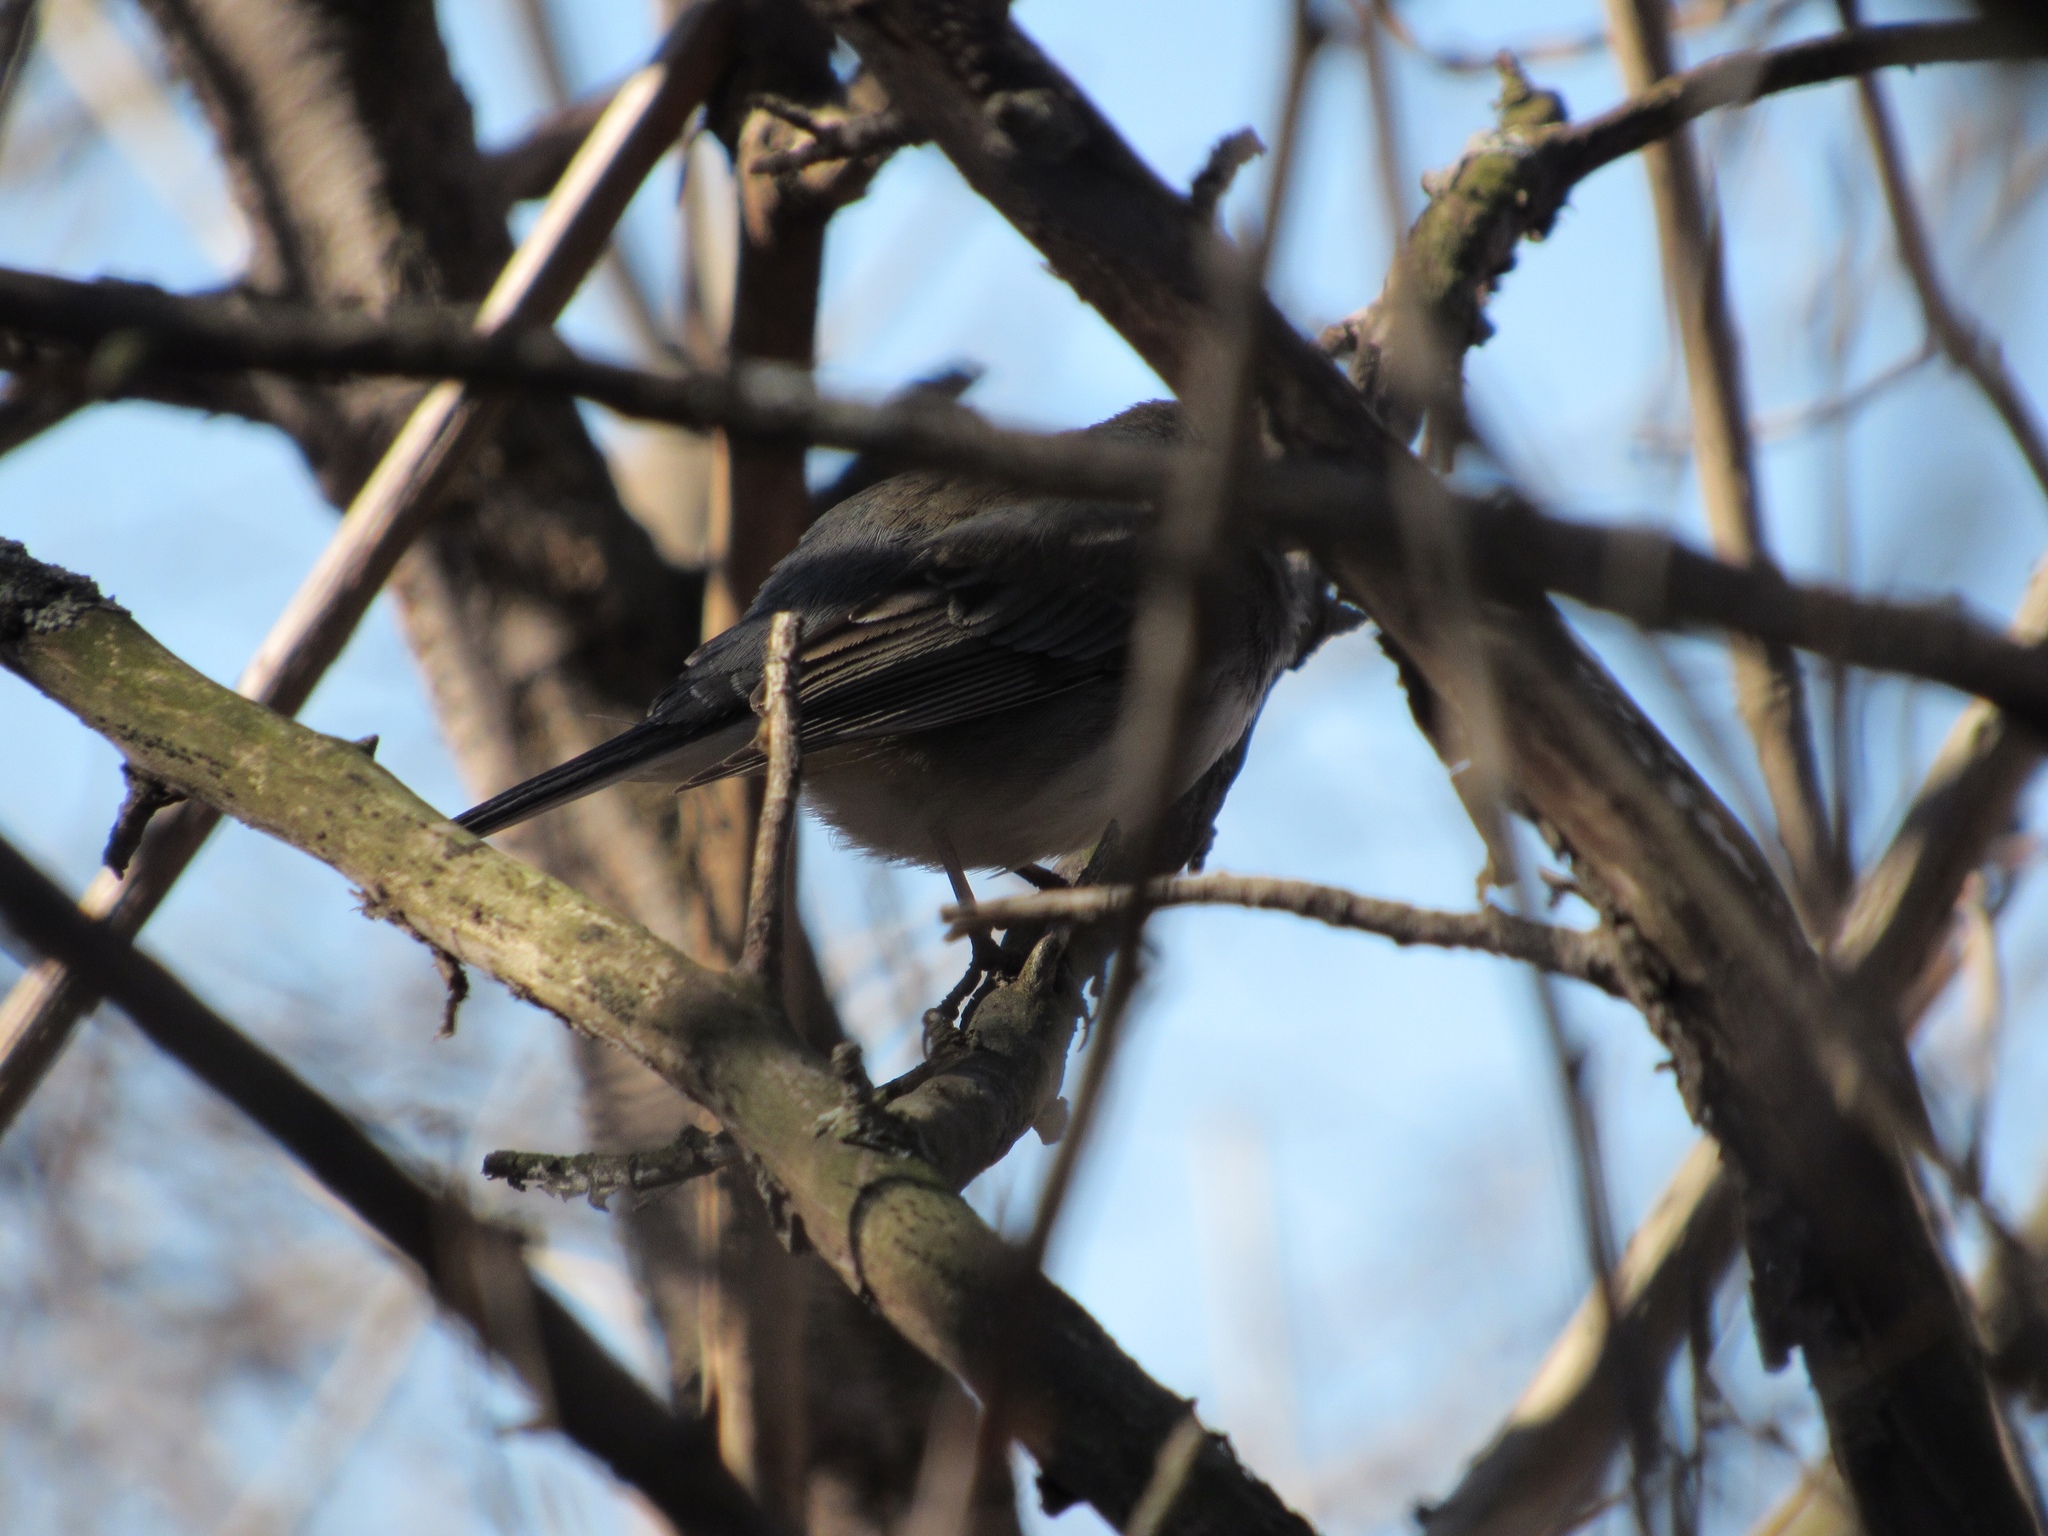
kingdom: Animalia
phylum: Chordata
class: Aves
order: Passeriformes
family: Passerellidae
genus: Junco
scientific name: Junco hyemalis
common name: Dark-eyed junco
